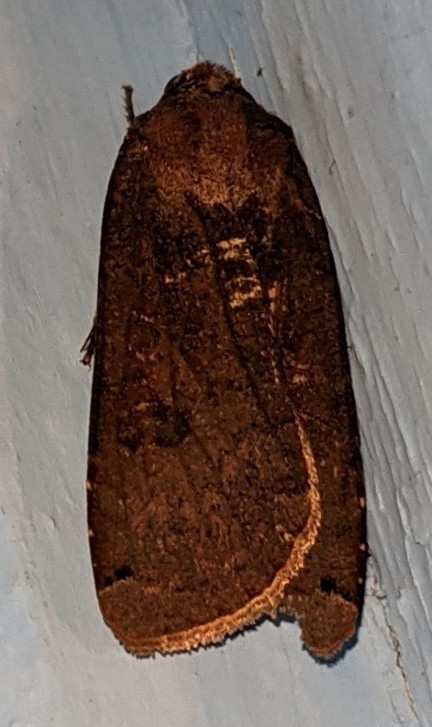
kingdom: Animalia
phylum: Arthropoda
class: Insecta
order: Lepidoptera
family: Noctuidae
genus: Noctua
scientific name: Noctua pronuba
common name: Large yellow underwing
